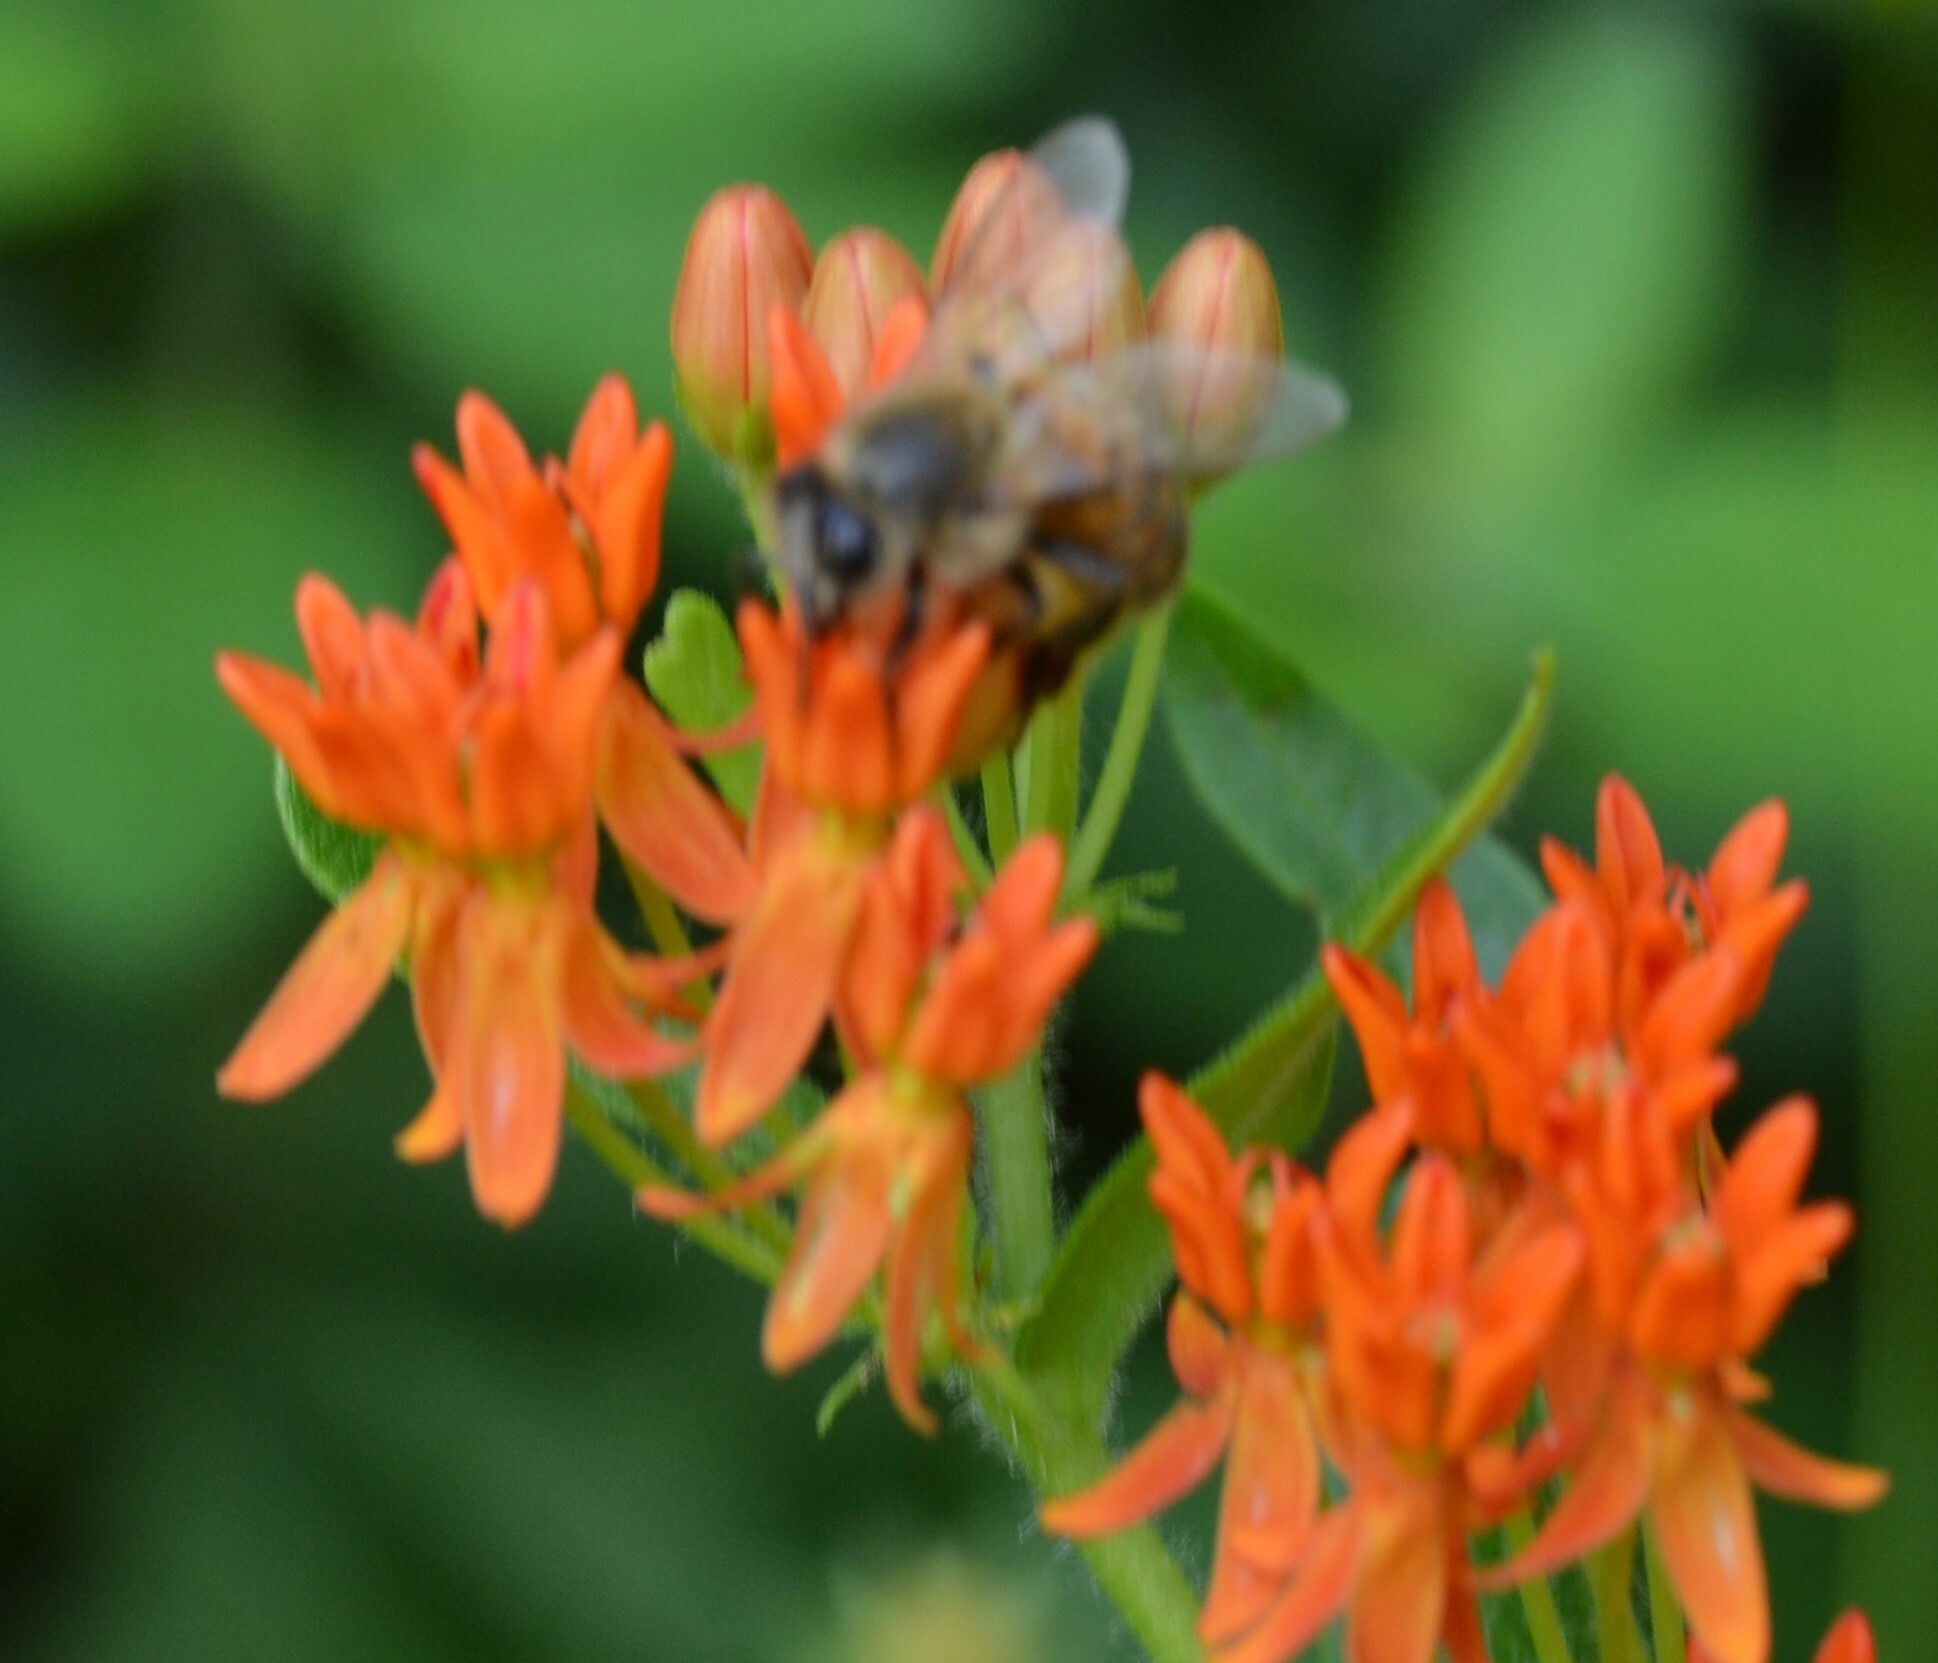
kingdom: Animalia
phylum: Arthropoda
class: Insecta
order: Hymenoptera
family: Apidae
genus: Apis
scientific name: Apis mellifera
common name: Honey bee
